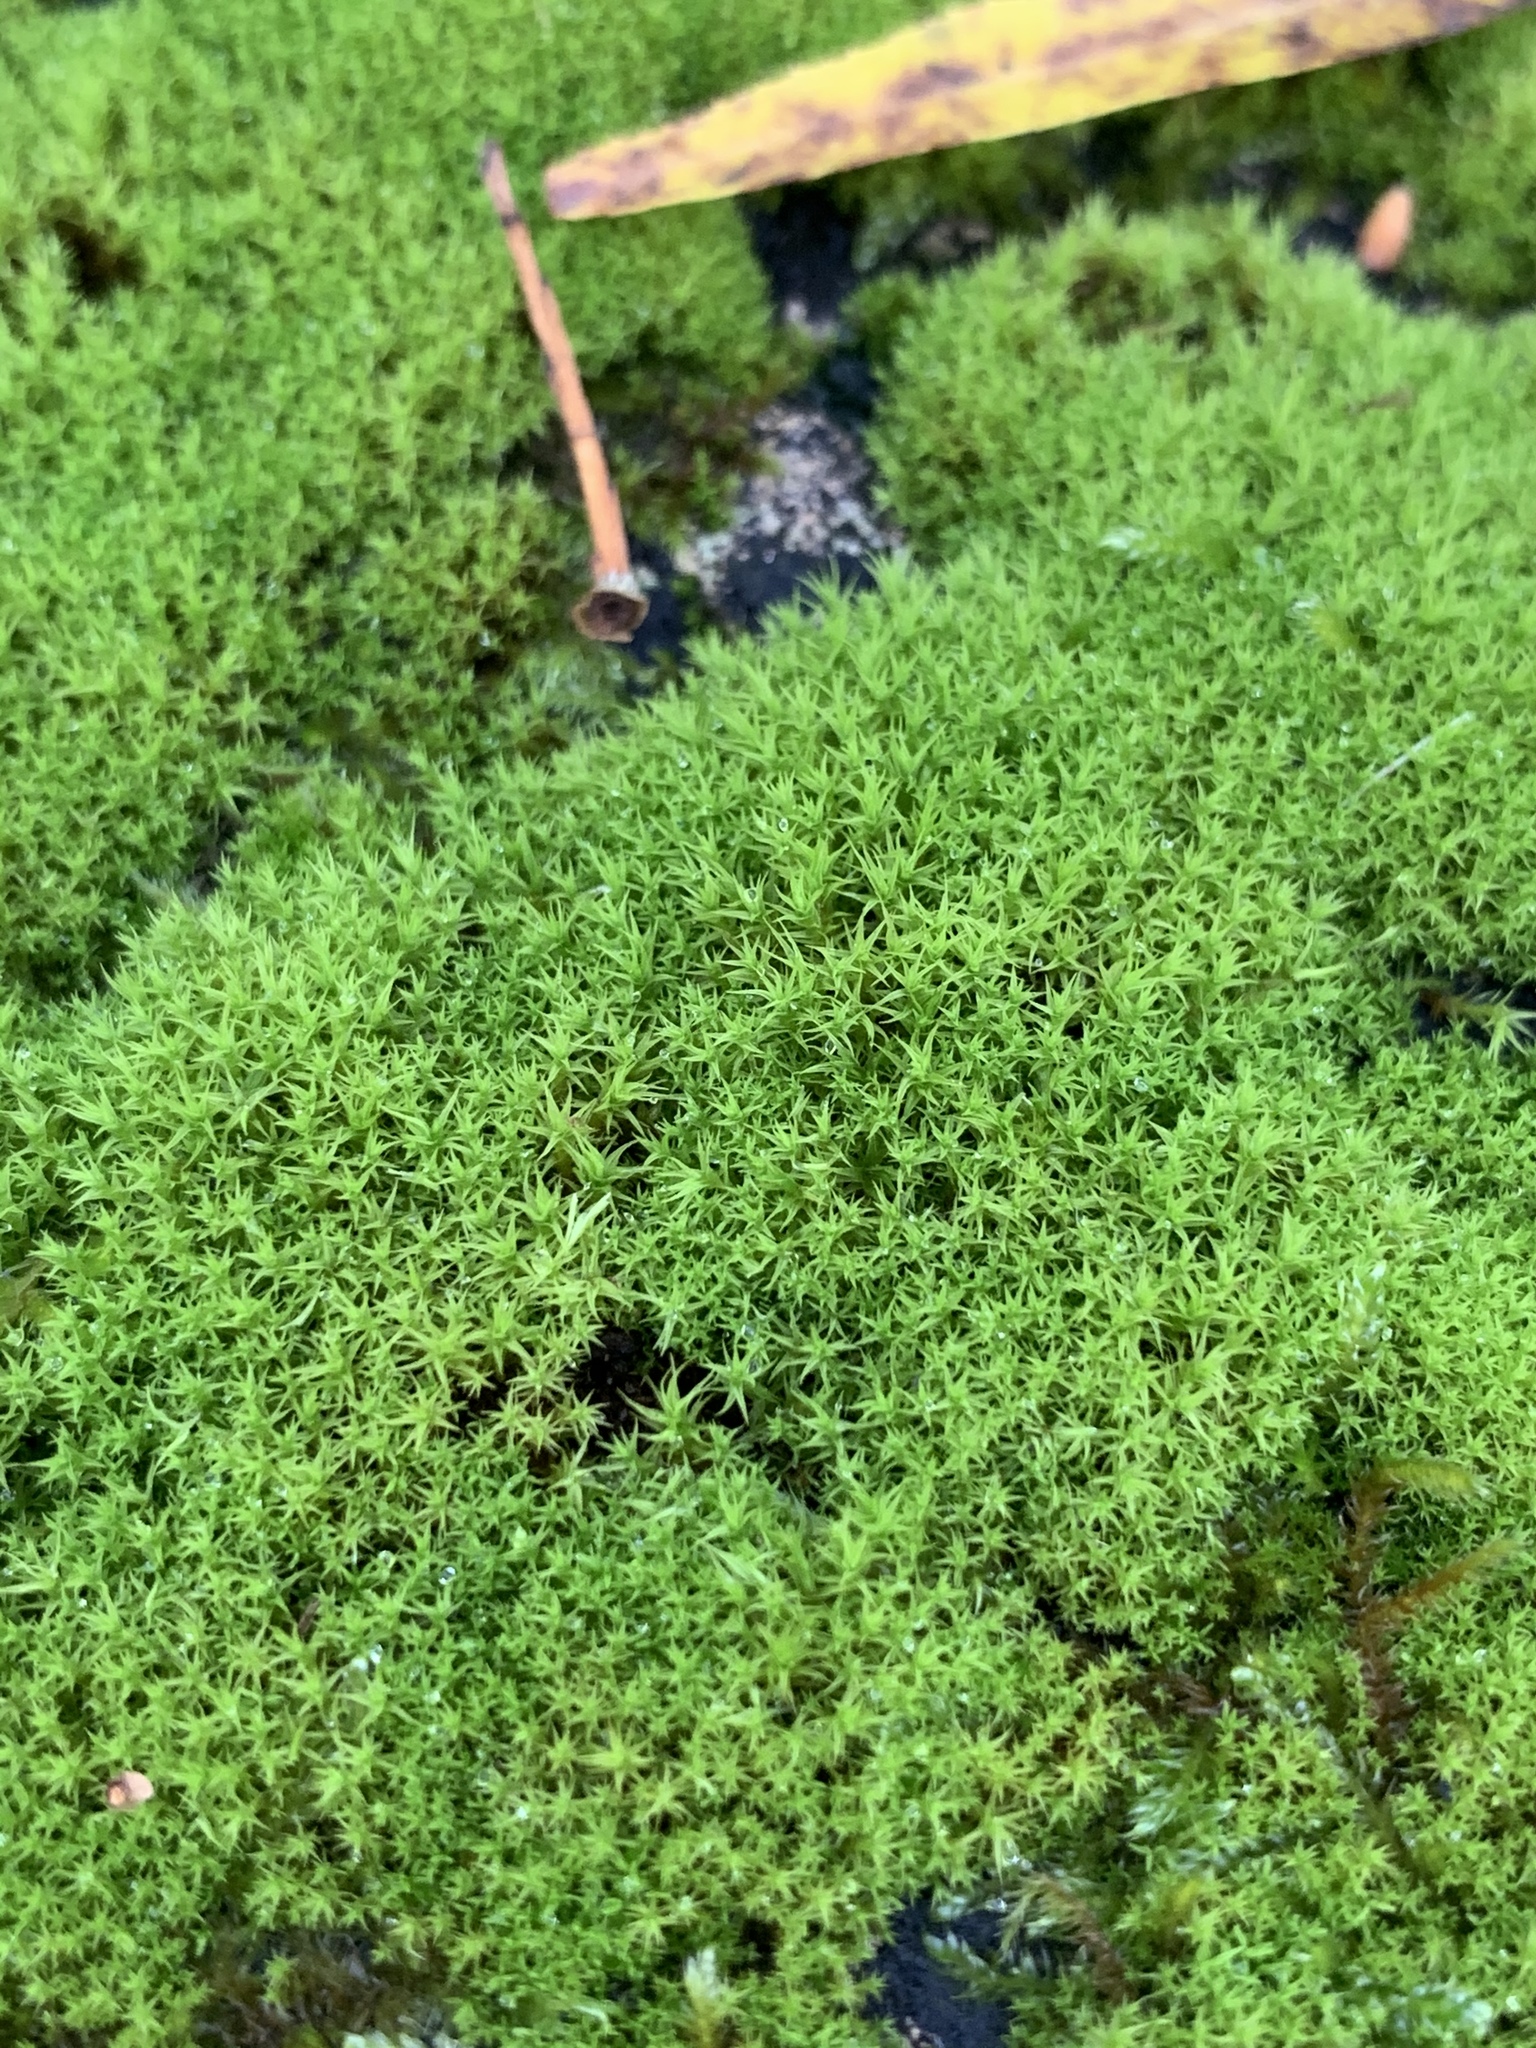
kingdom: Plantae
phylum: Bryophyta
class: Bryopsida
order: Pottiales
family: Pottiaceae
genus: Vinealobryum
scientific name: Vinealobryum vineale
